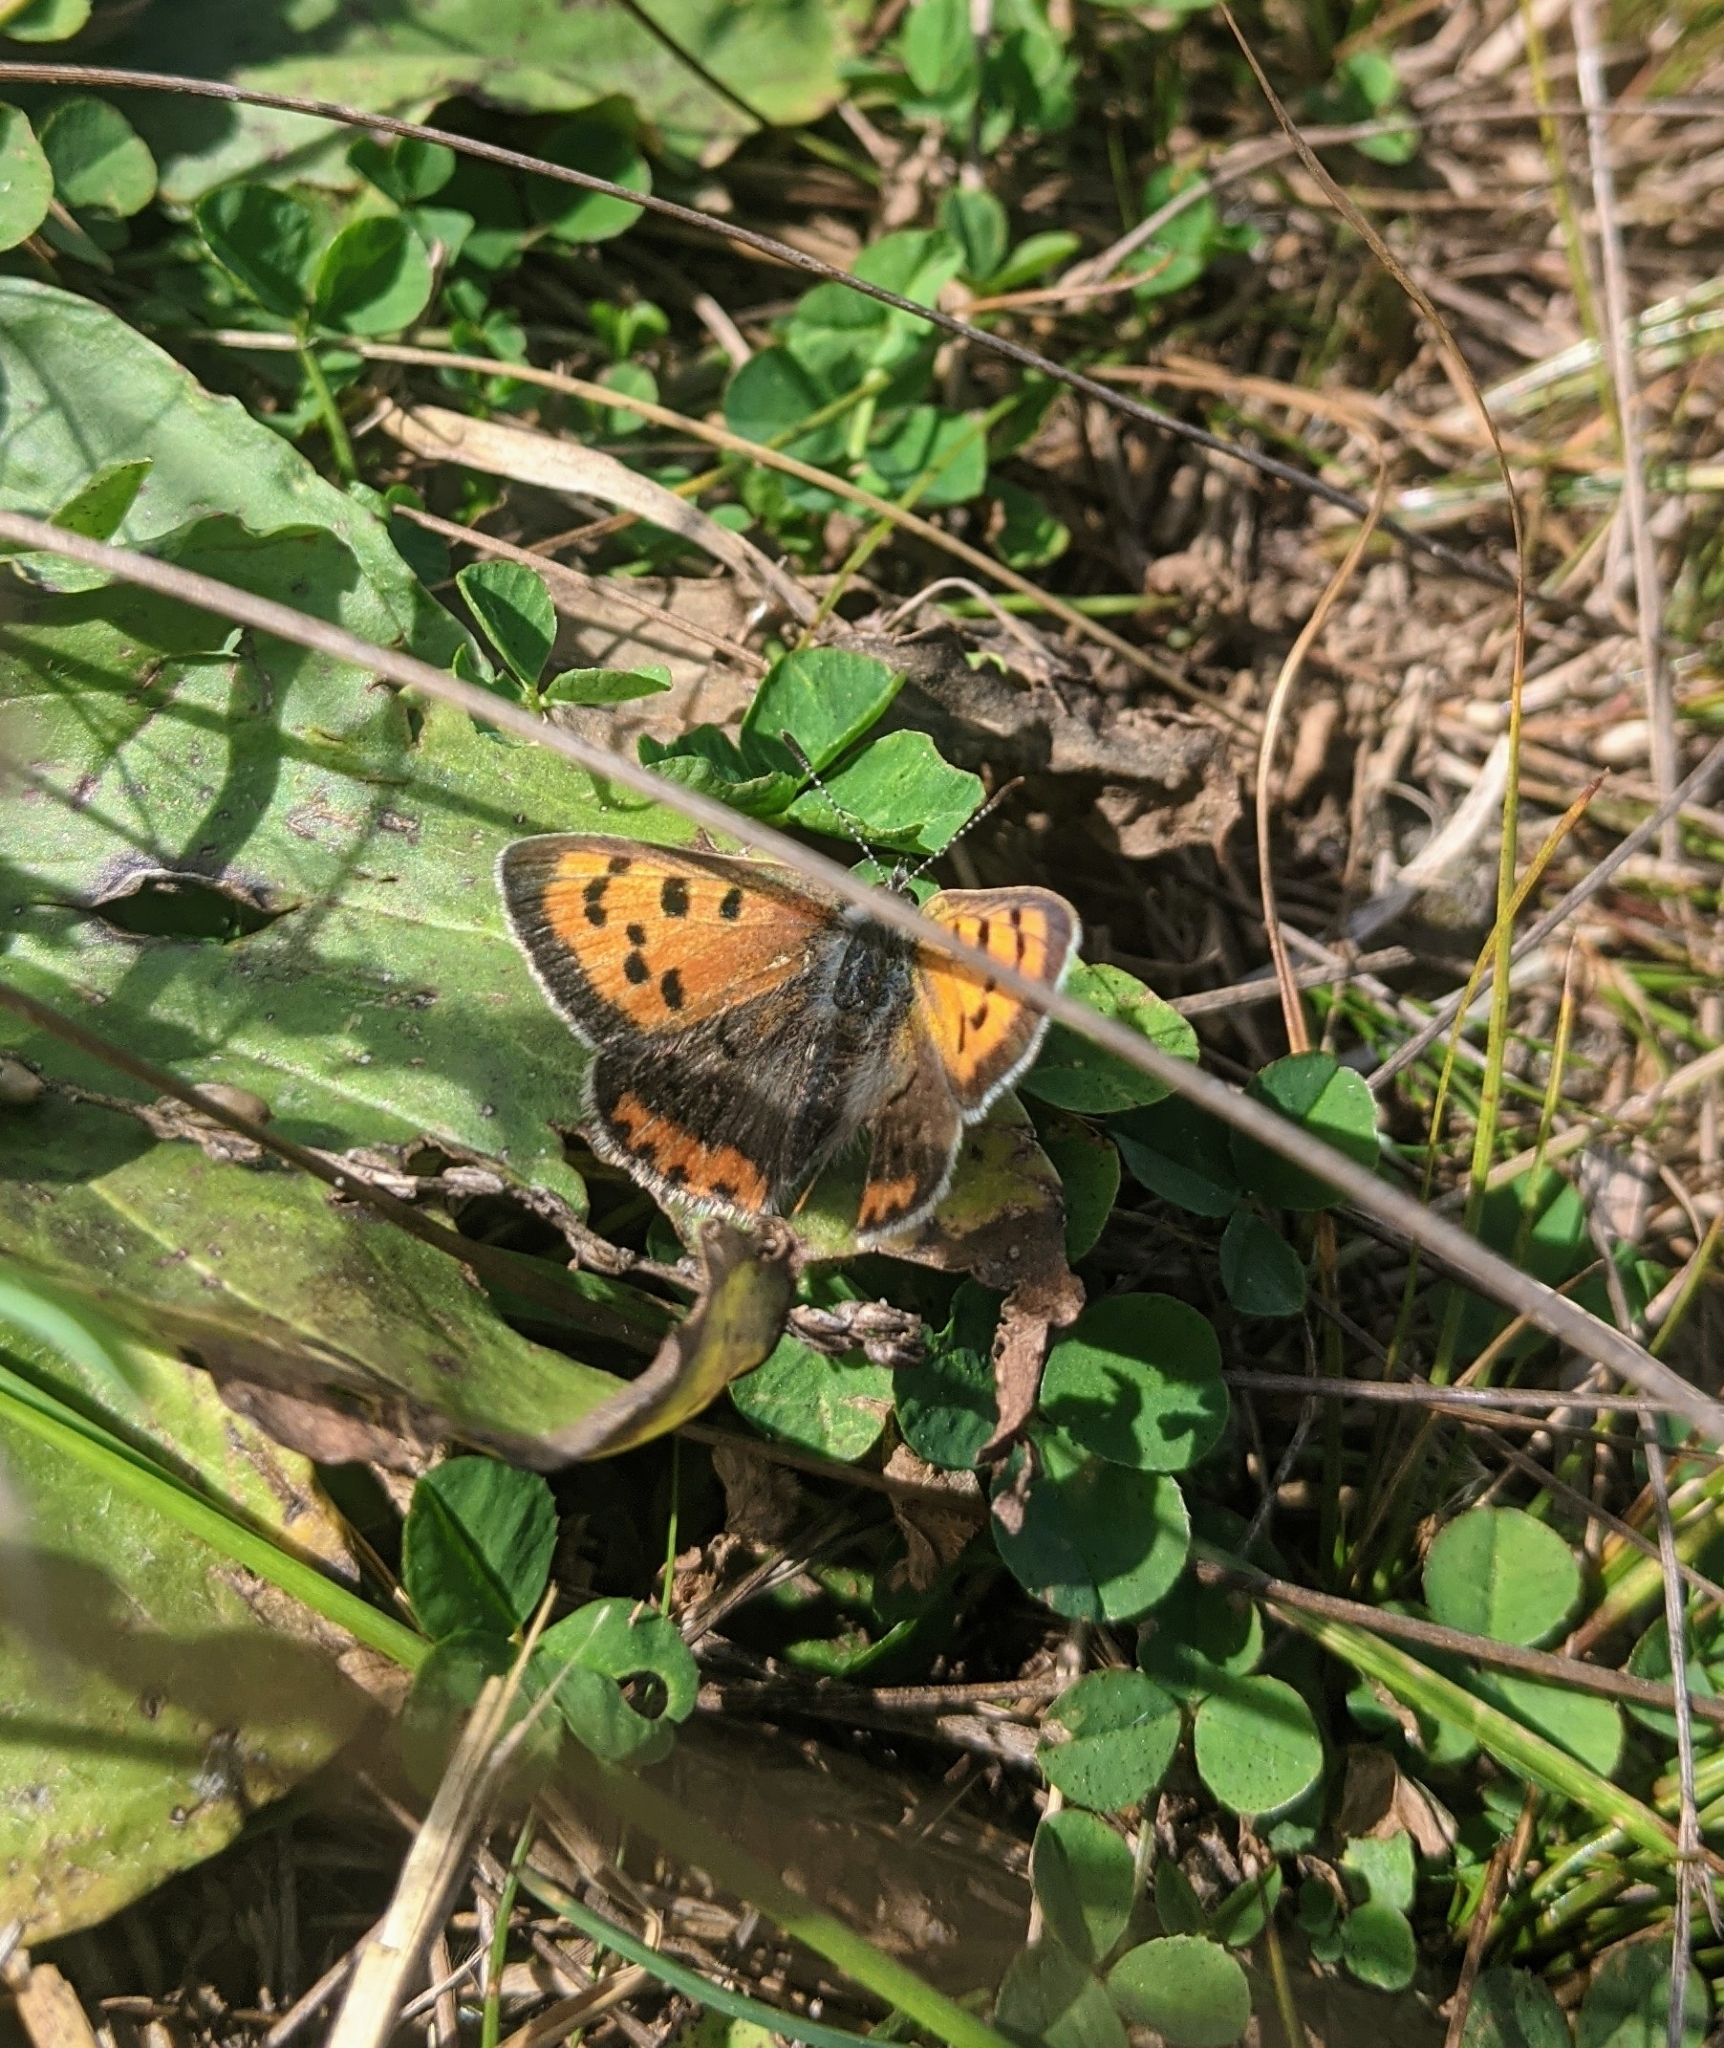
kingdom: Animalia
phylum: Arthropoda
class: Insecta
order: Lepidoptera
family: Lycaenidae
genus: Lycaena
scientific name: Lycaena hypophlaeas
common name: American copper
